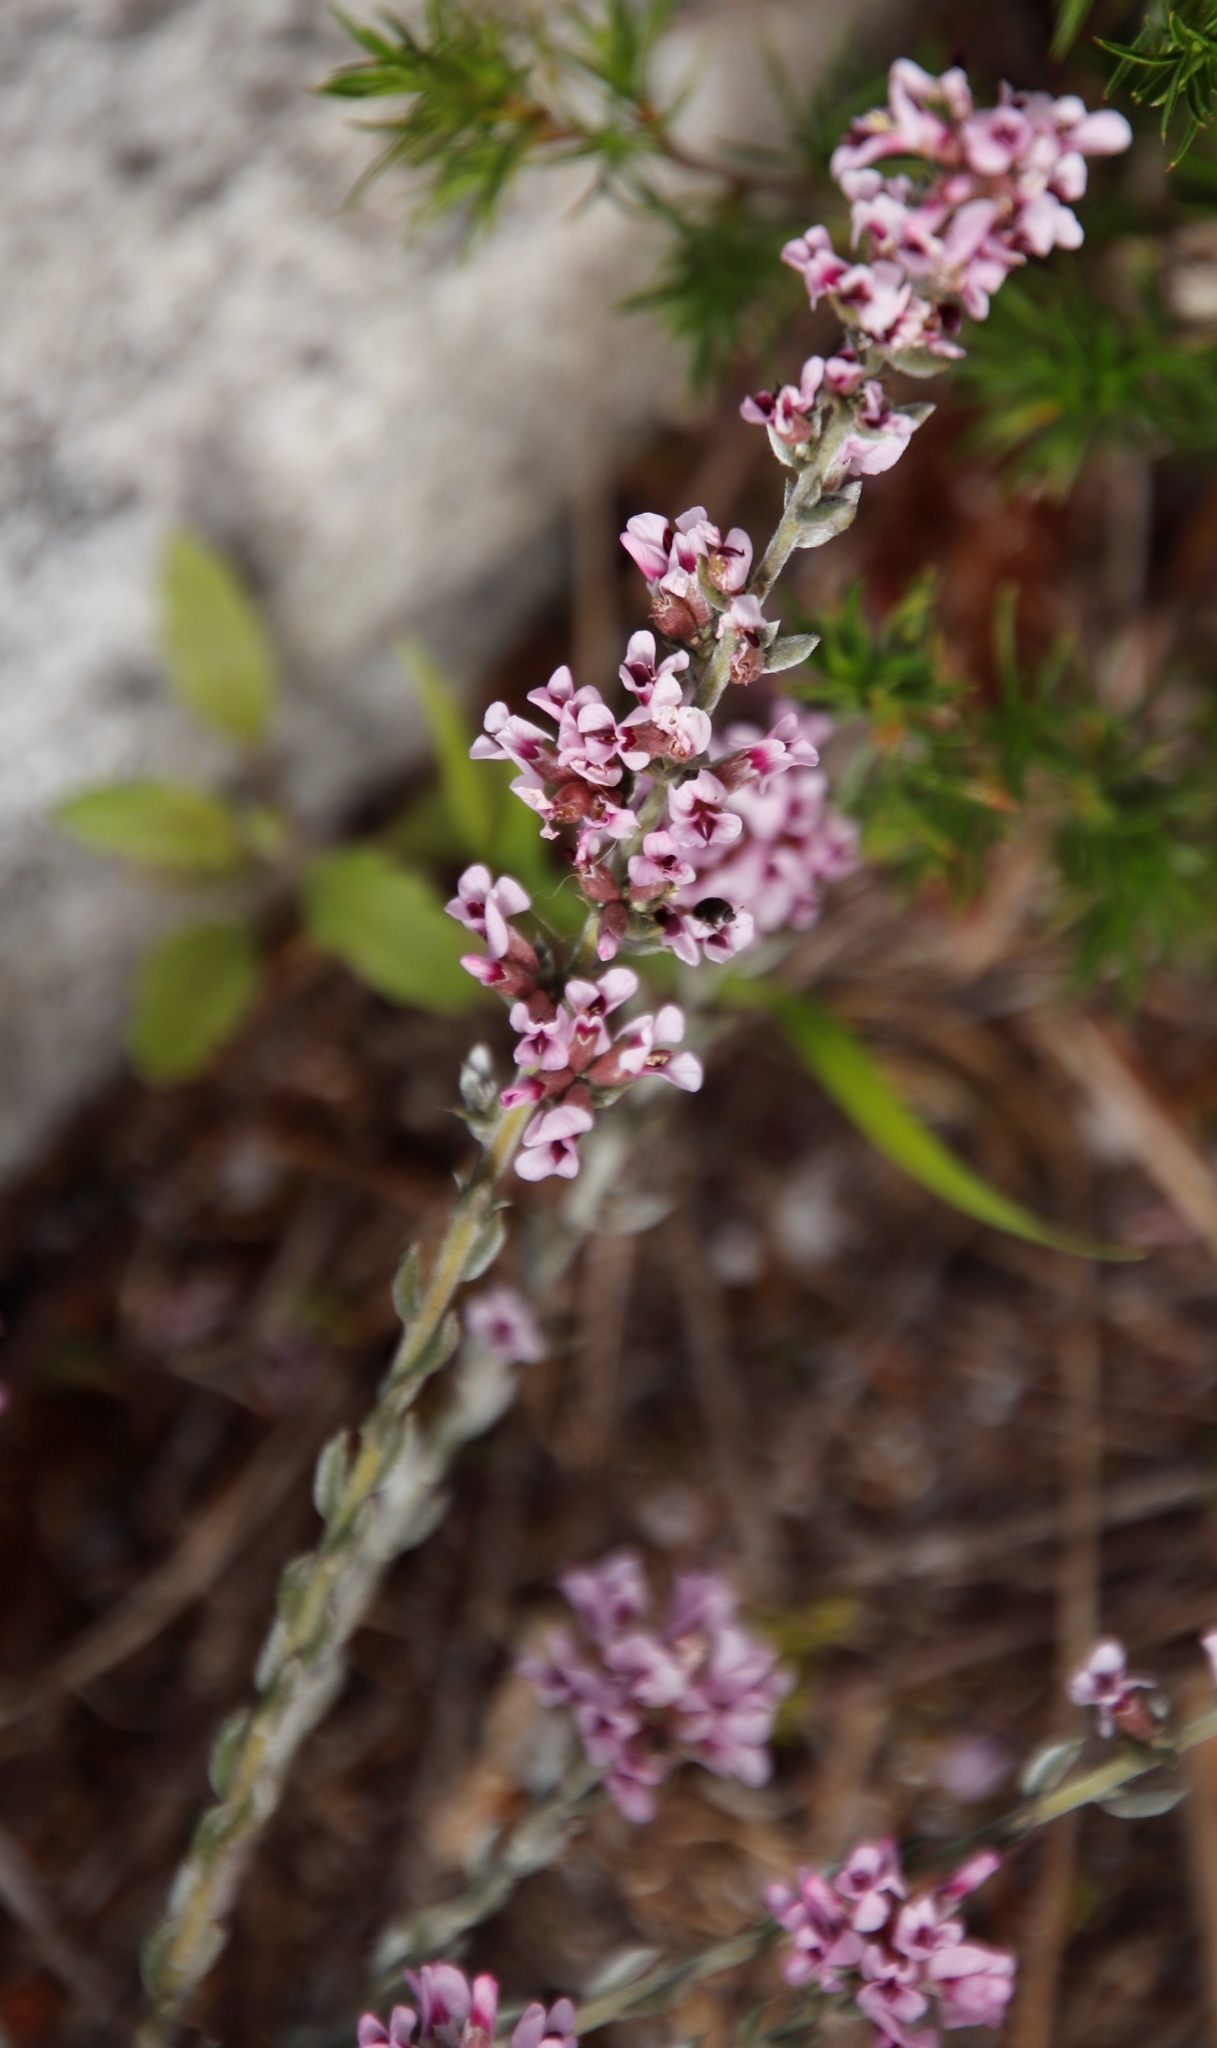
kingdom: Plantae
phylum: Tracheophyta
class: Magnoliopsida
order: Fabales
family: Fabaceae
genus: Amphithalea
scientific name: Amphithalea ericifolia
